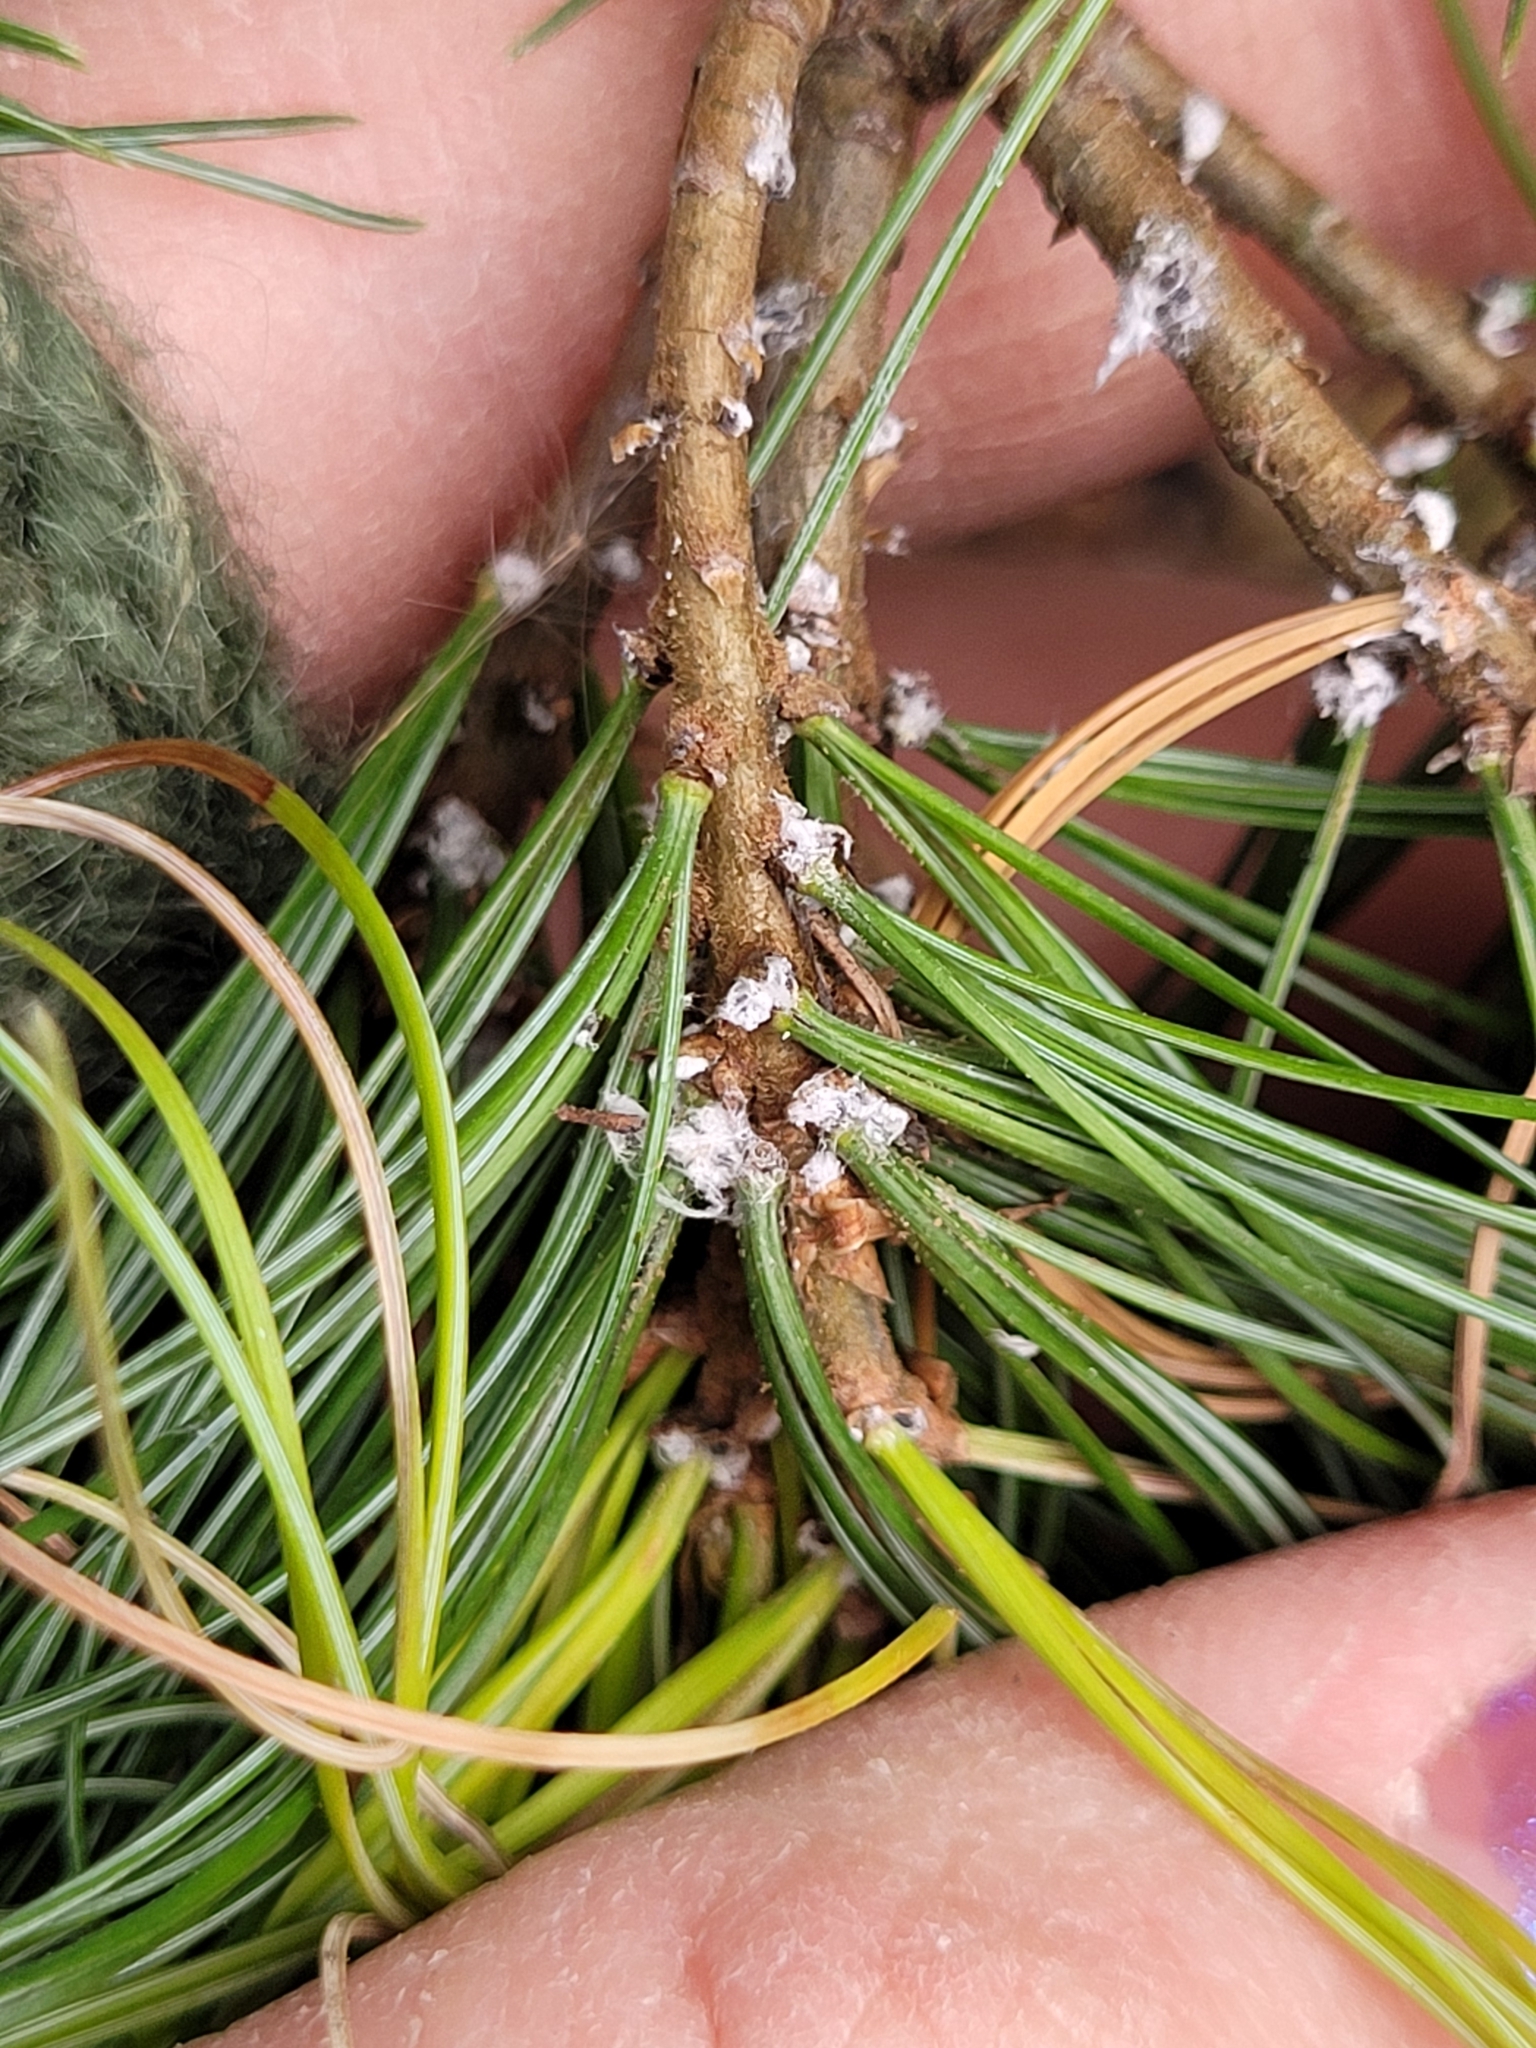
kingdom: Animalia
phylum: Arthropoda
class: Insecta
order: Hemiptera
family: Adelgidae
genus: Pineus
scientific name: Pineus strobi
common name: Pine bark adelgid
